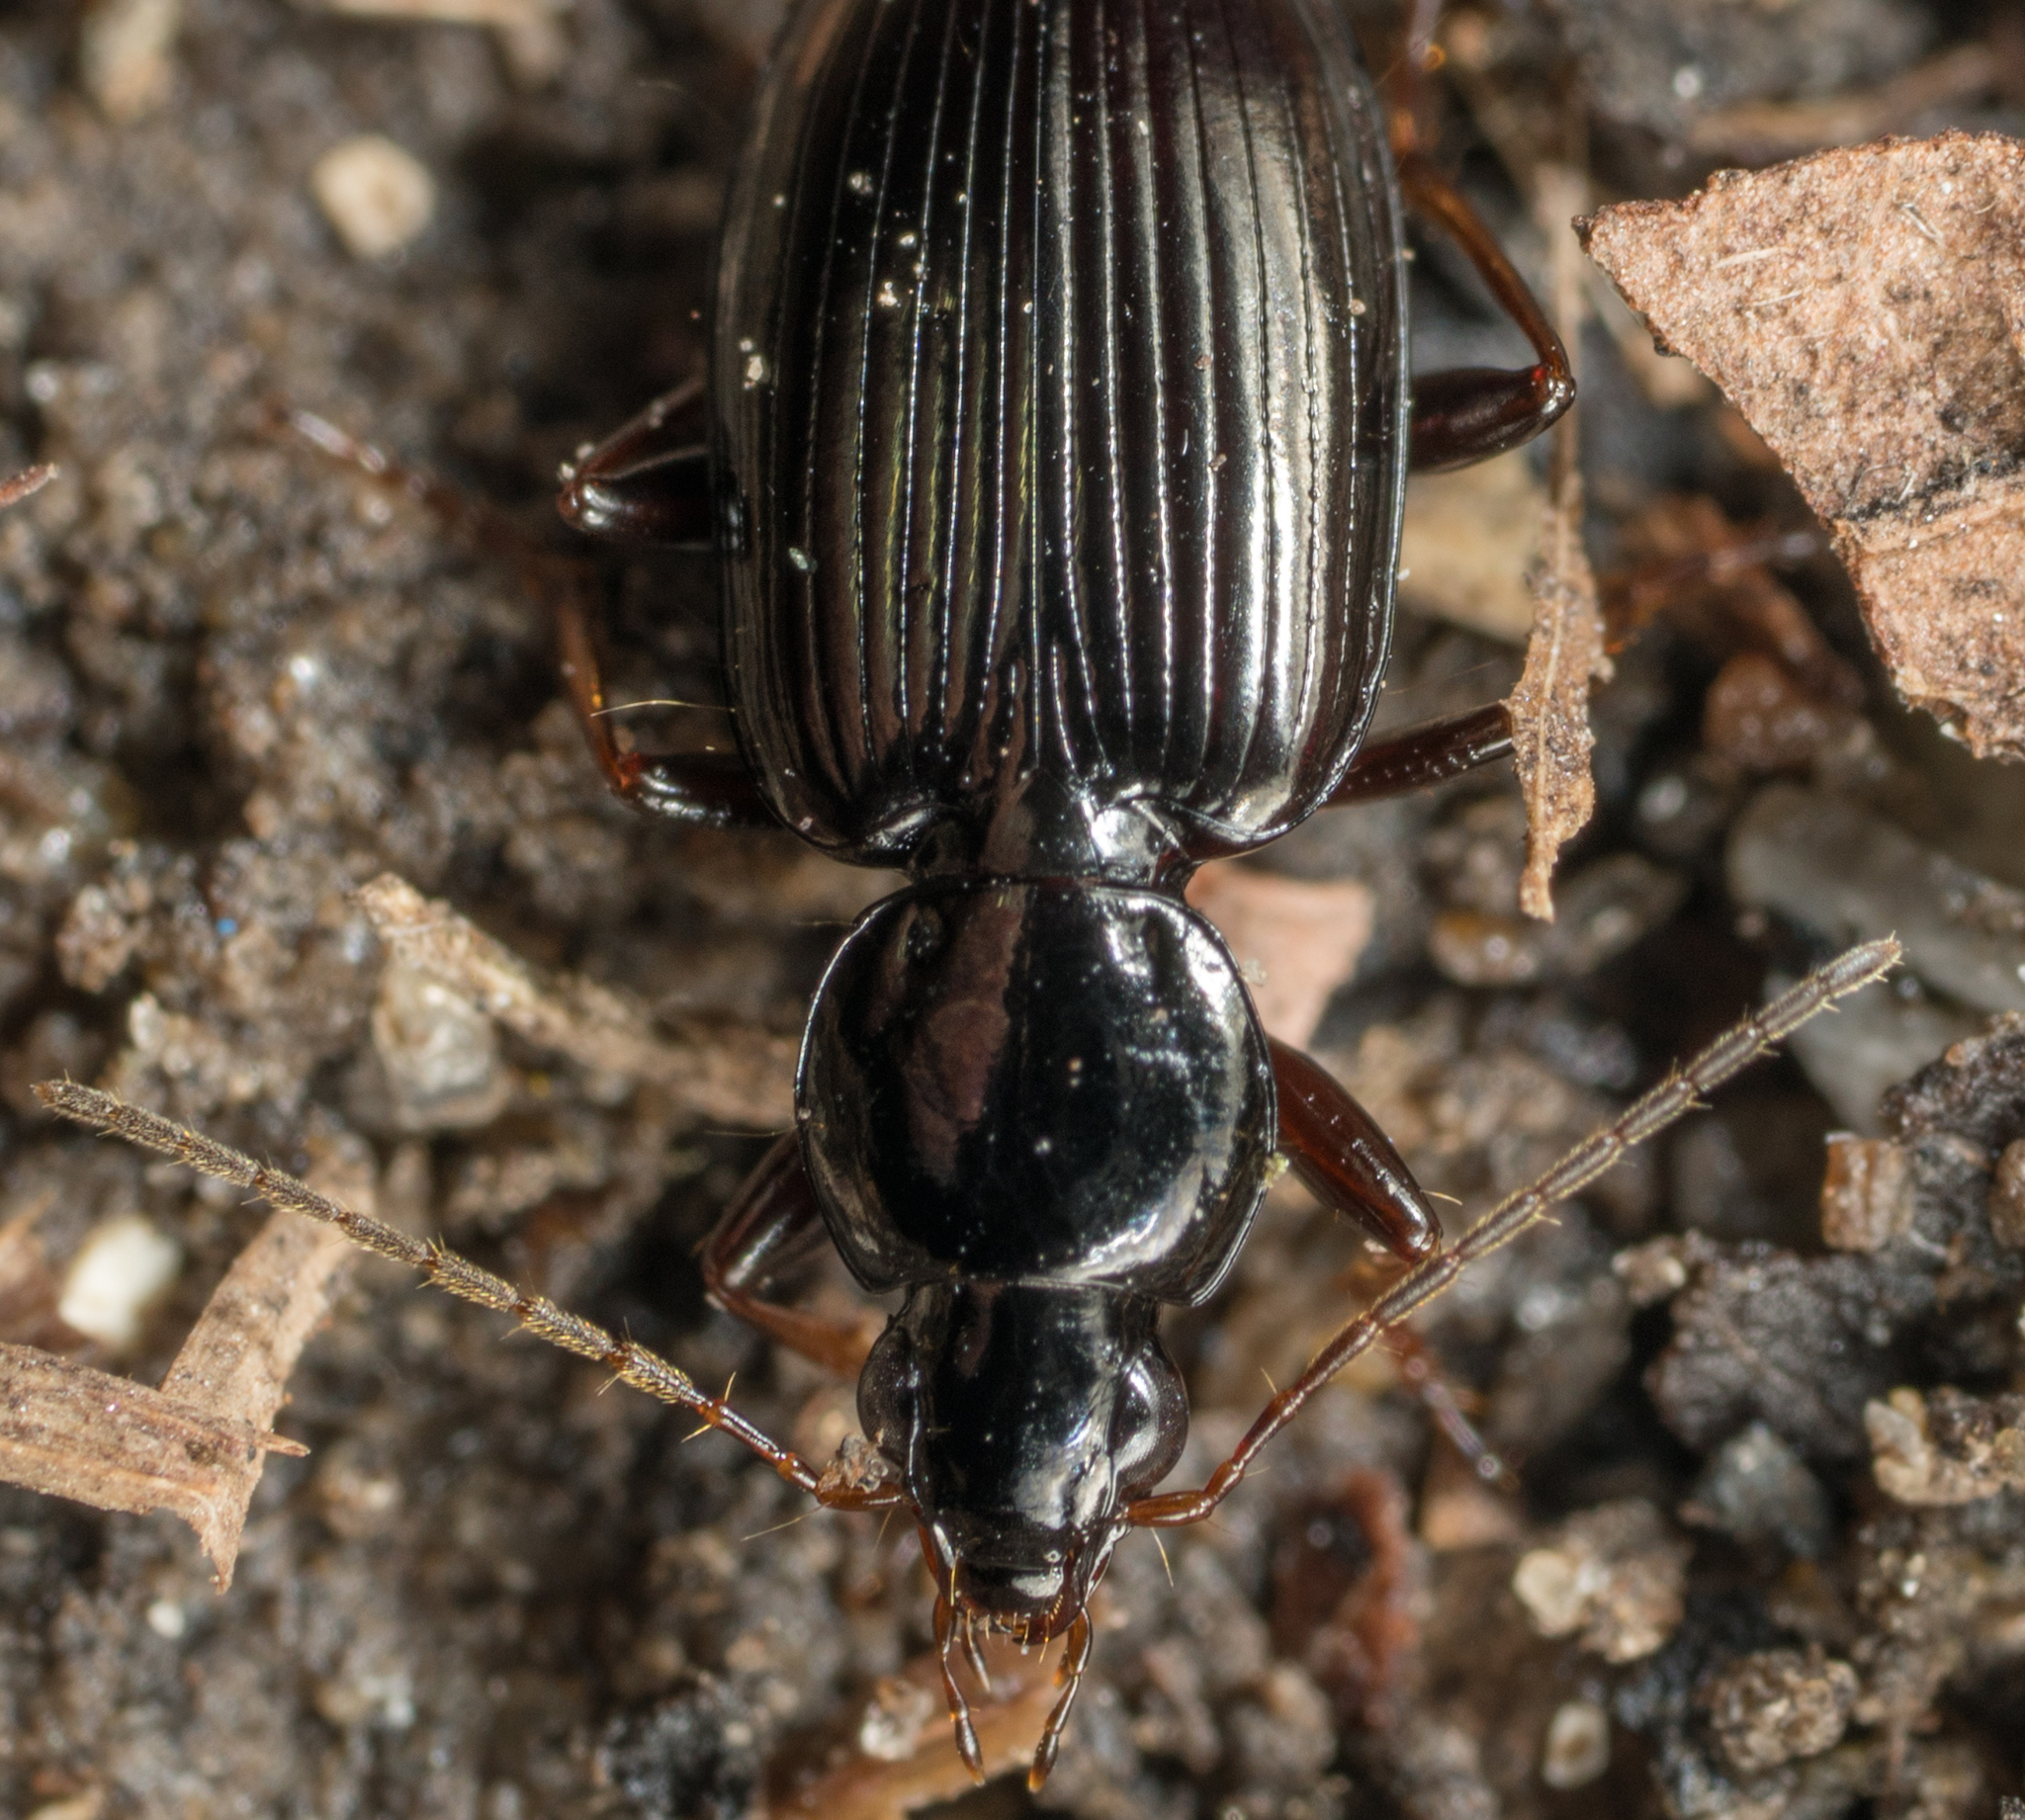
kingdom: Animalia
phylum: Arthropoda
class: Insecta
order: Coleoptera
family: Carabidae
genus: Agonum
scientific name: Agonum punctiforme
